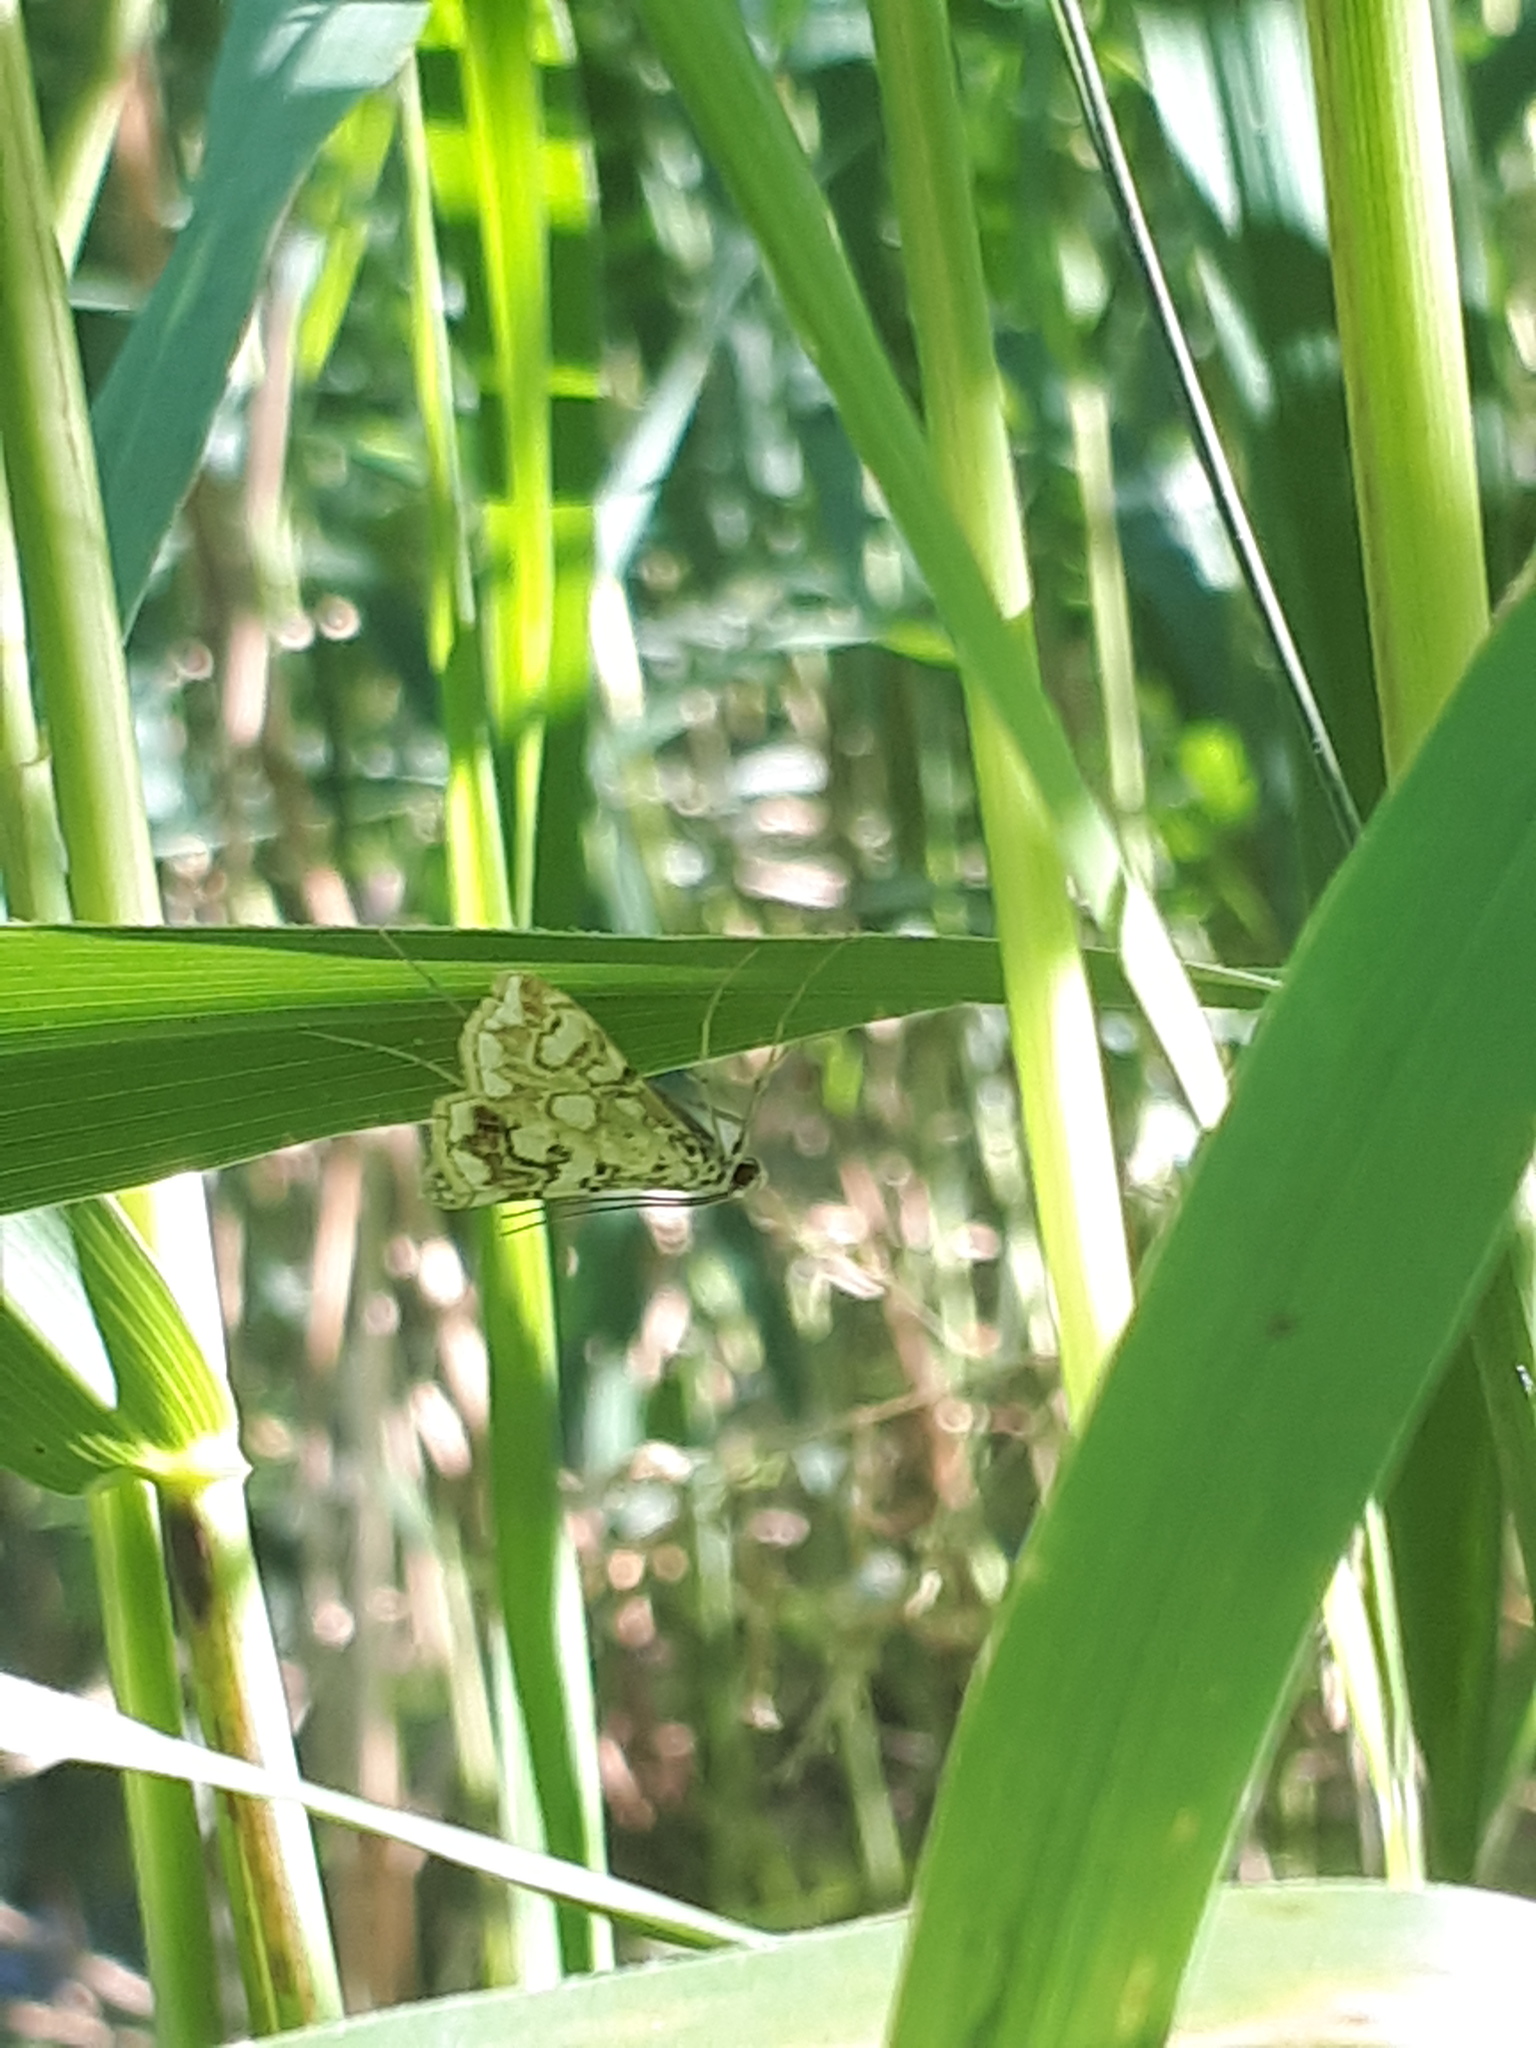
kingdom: Animalia
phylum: Arthropoda
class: Insecta
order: Lepidoptera
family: Crambidae
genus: Elophila
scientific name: Elophila nymphaeata
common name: Brown china-mark
